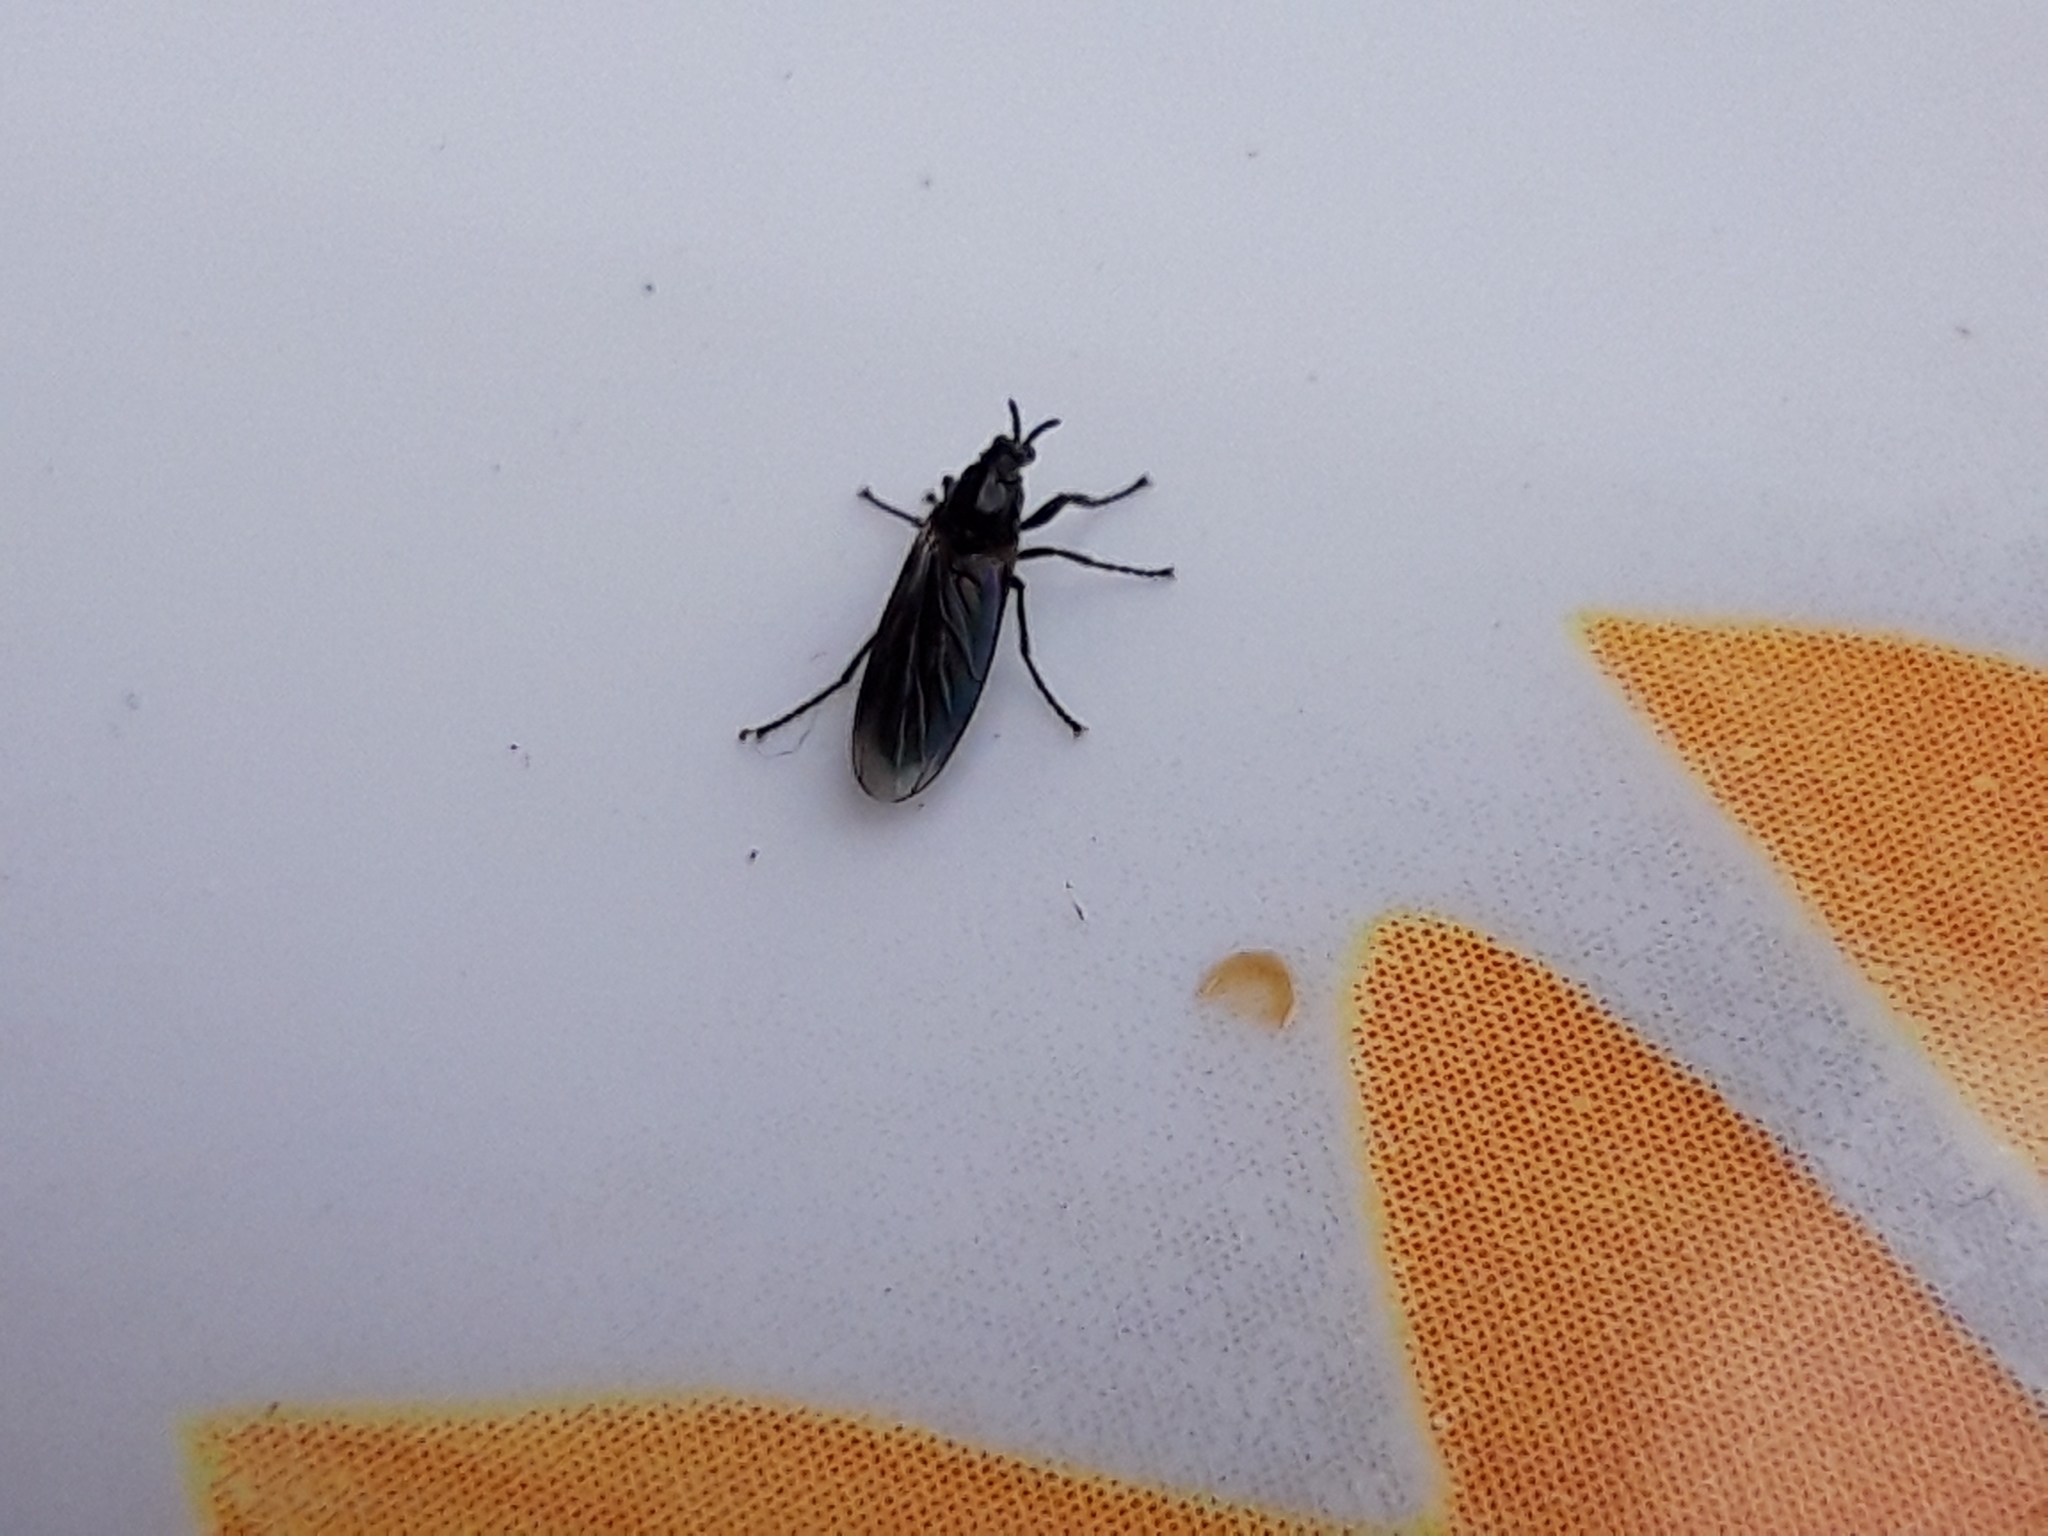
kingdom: Animalia
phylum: Arthropoda
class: Insecta
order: Diptera
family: Bibionidae
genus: Dilophus
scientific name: Dilophus febrilis
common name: Fever fly
